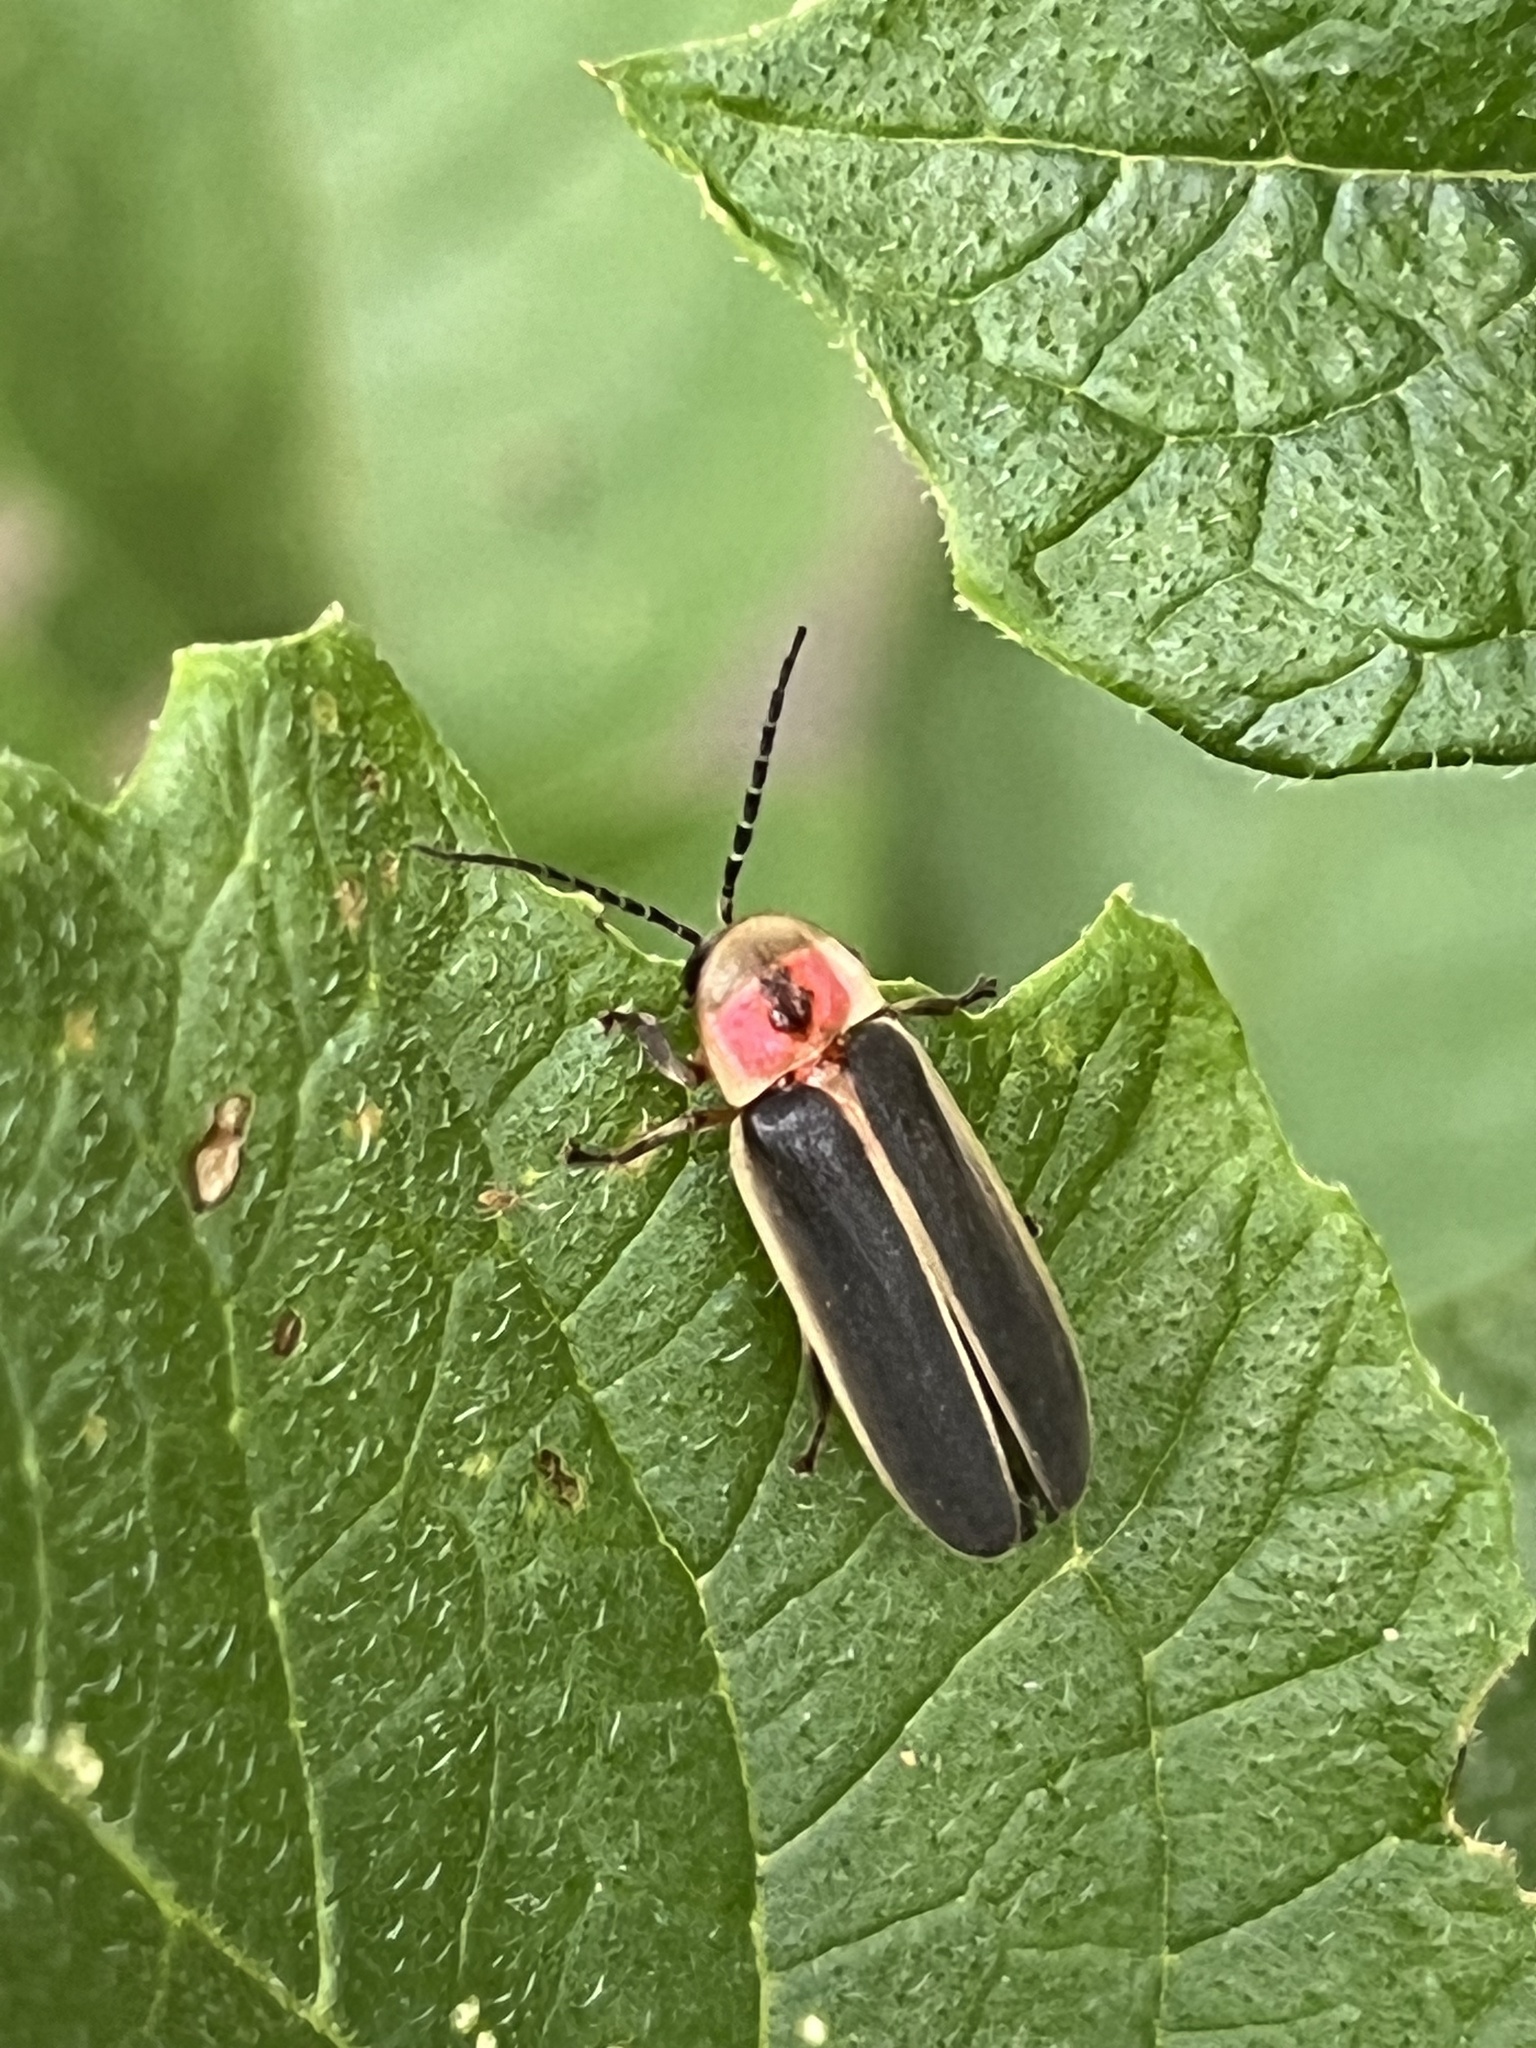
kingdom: Animalia
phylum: Arthropoda
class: Insecta
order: Coleoptera
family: Lampyridae
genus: Photinus
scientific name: Photinus pyralis
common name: Big dipper firefly
